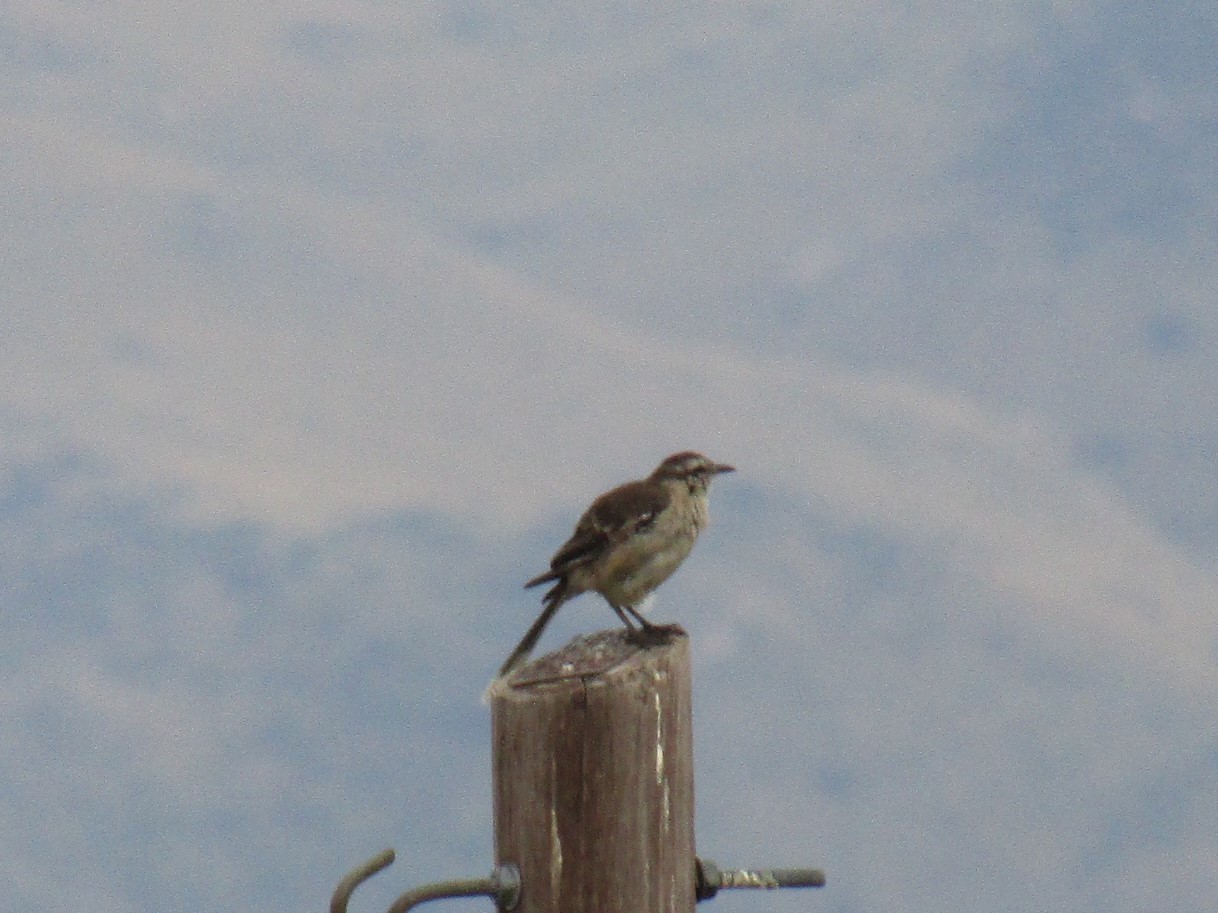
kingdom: Animalia
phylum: Chordata
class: Aves
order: Passeriformes
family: Mimidae
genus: Mimus
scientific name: Mimus saturninus
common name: Chalk-browed mockingbird
